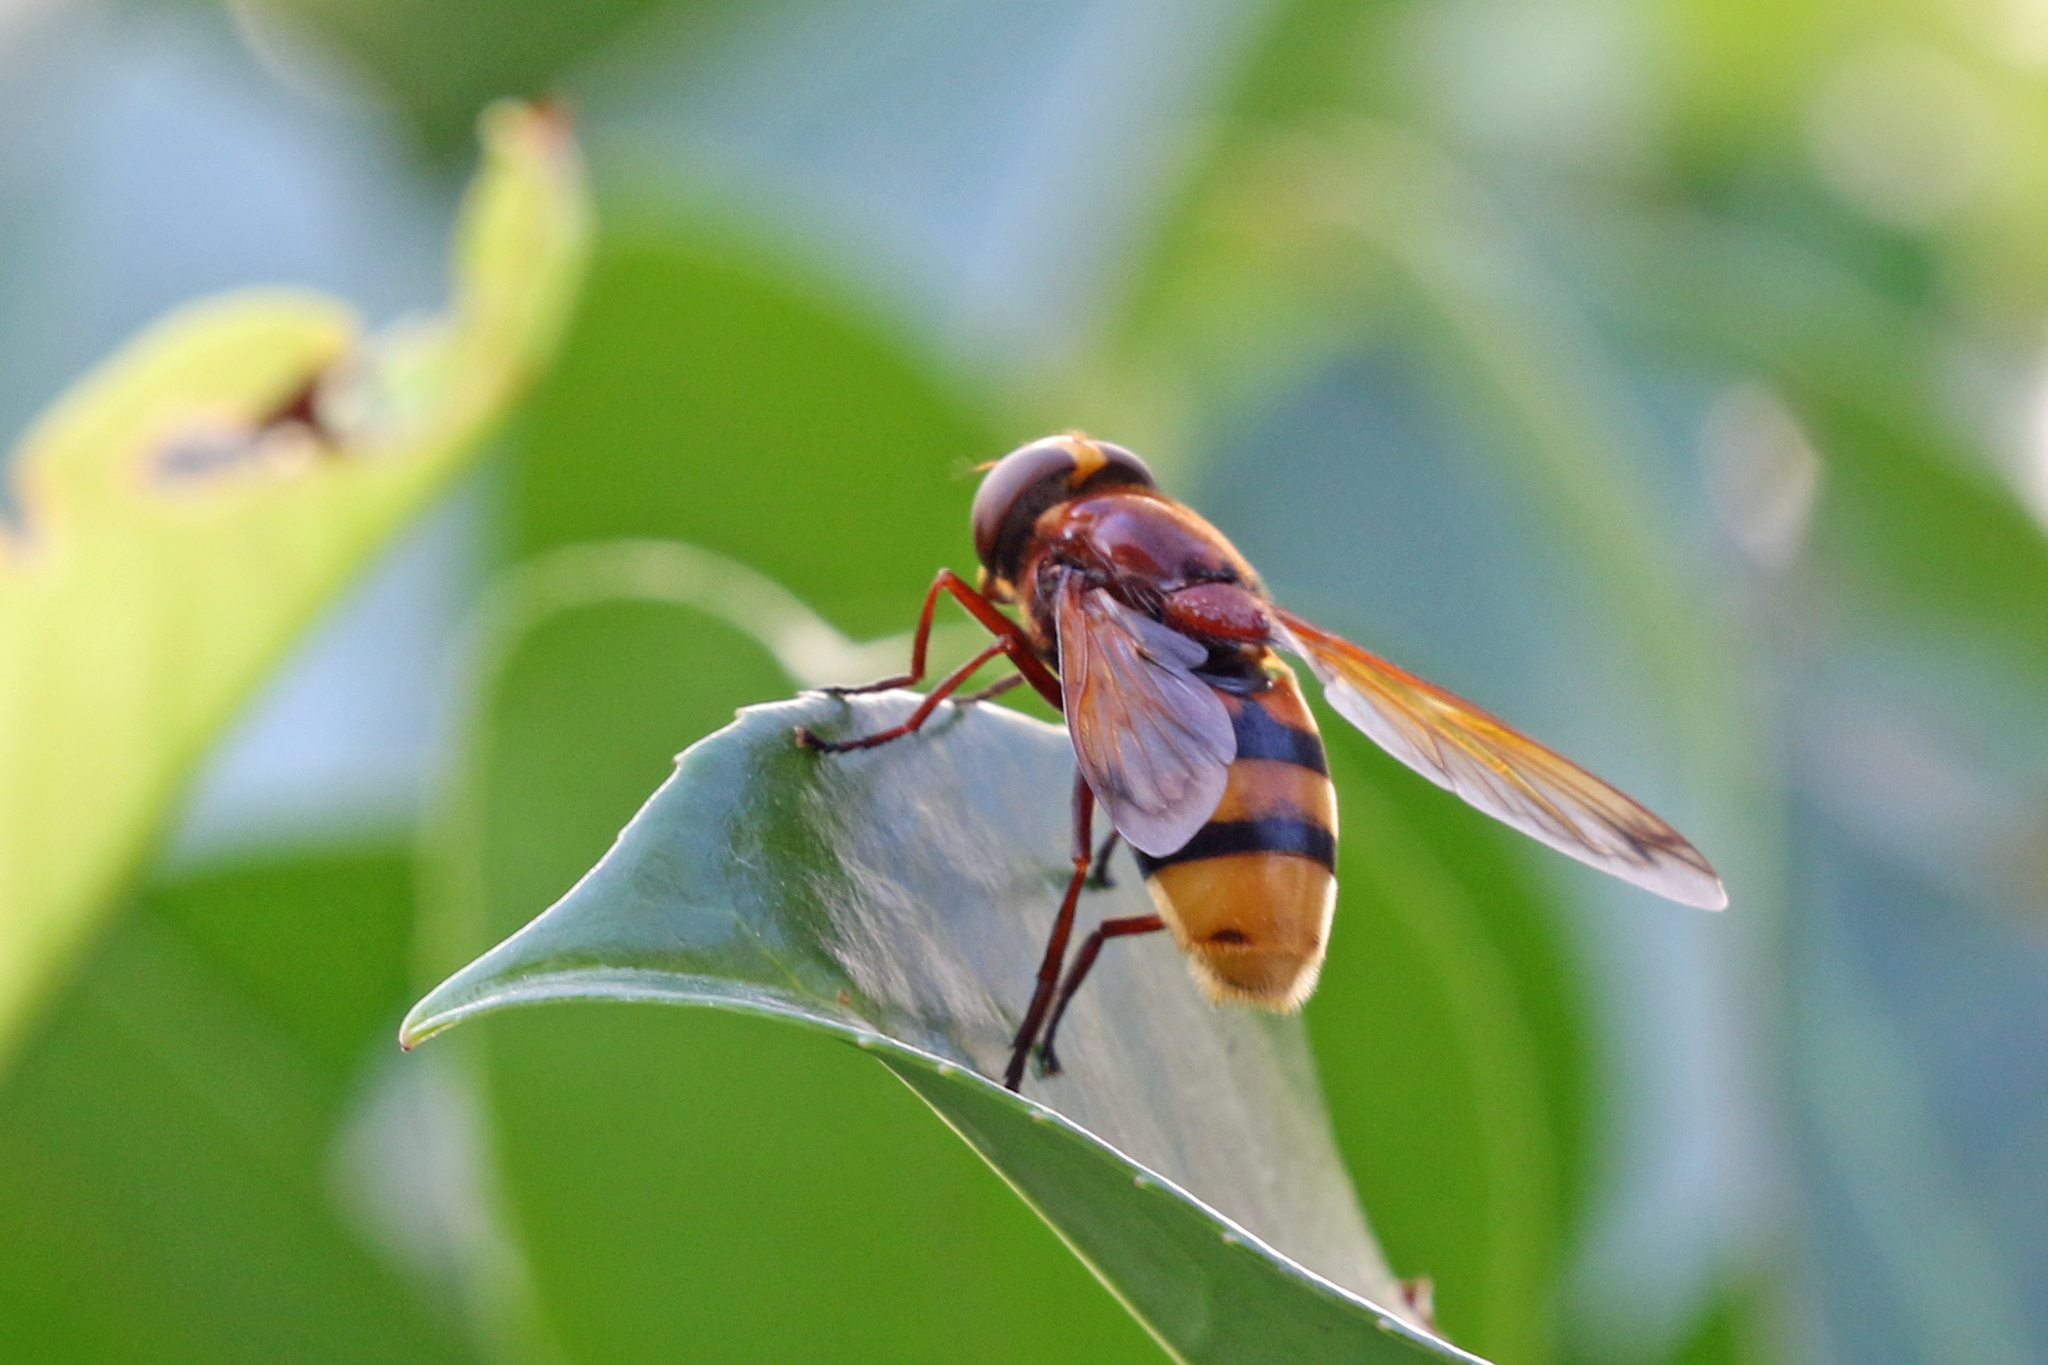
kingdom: Animalia
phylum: Arthropoda
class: Insecta
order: Diptera
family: Syrphidae
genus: Volucella
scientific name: Volucella zonaria
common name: Hornet hoverfly
